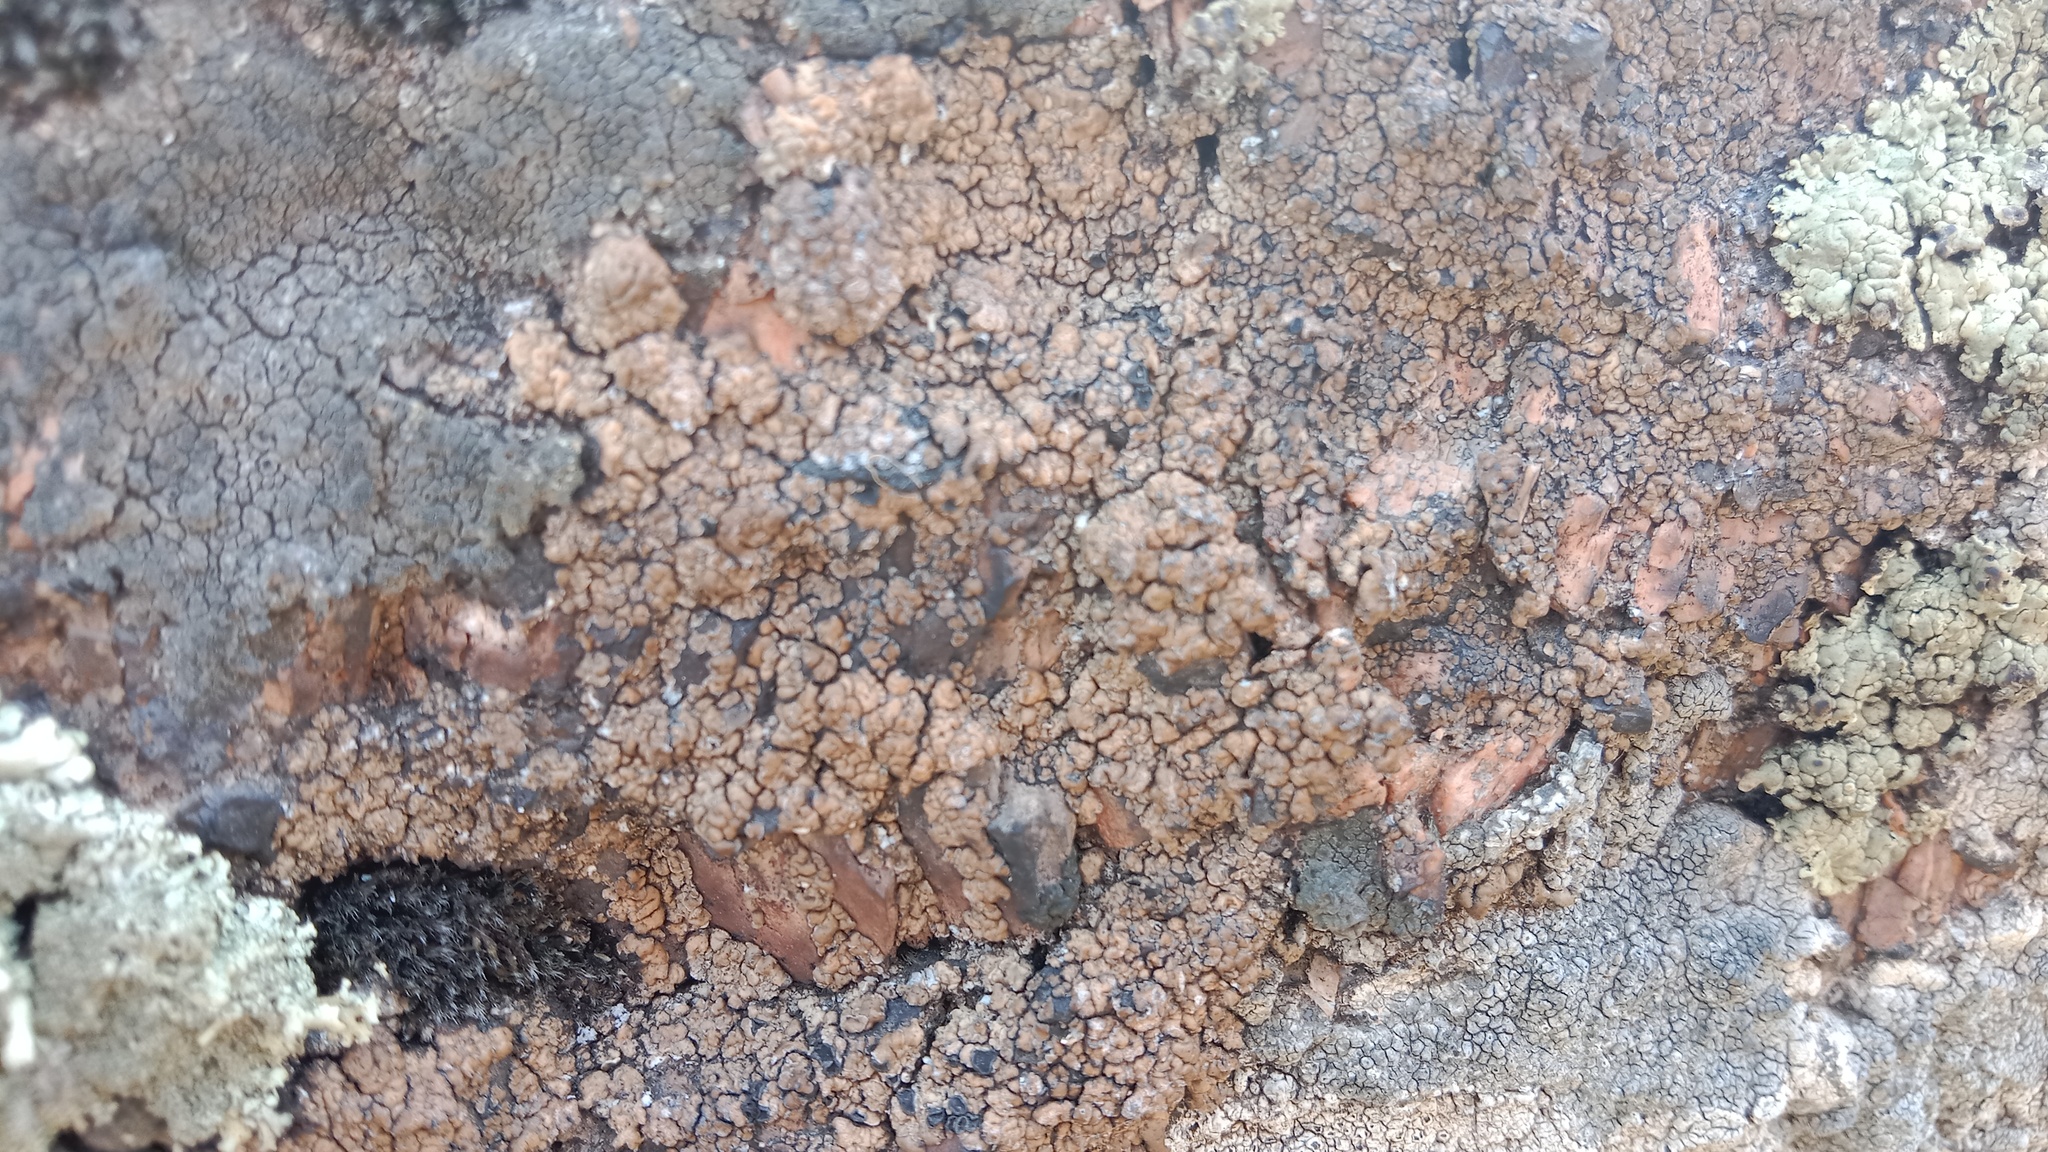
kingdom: Fungi
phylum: Ascomycota
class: Lecanoromycetes
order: Lecideales
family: Lecideaceae
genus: Lecidea
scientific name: Lecidea fuscoatra
